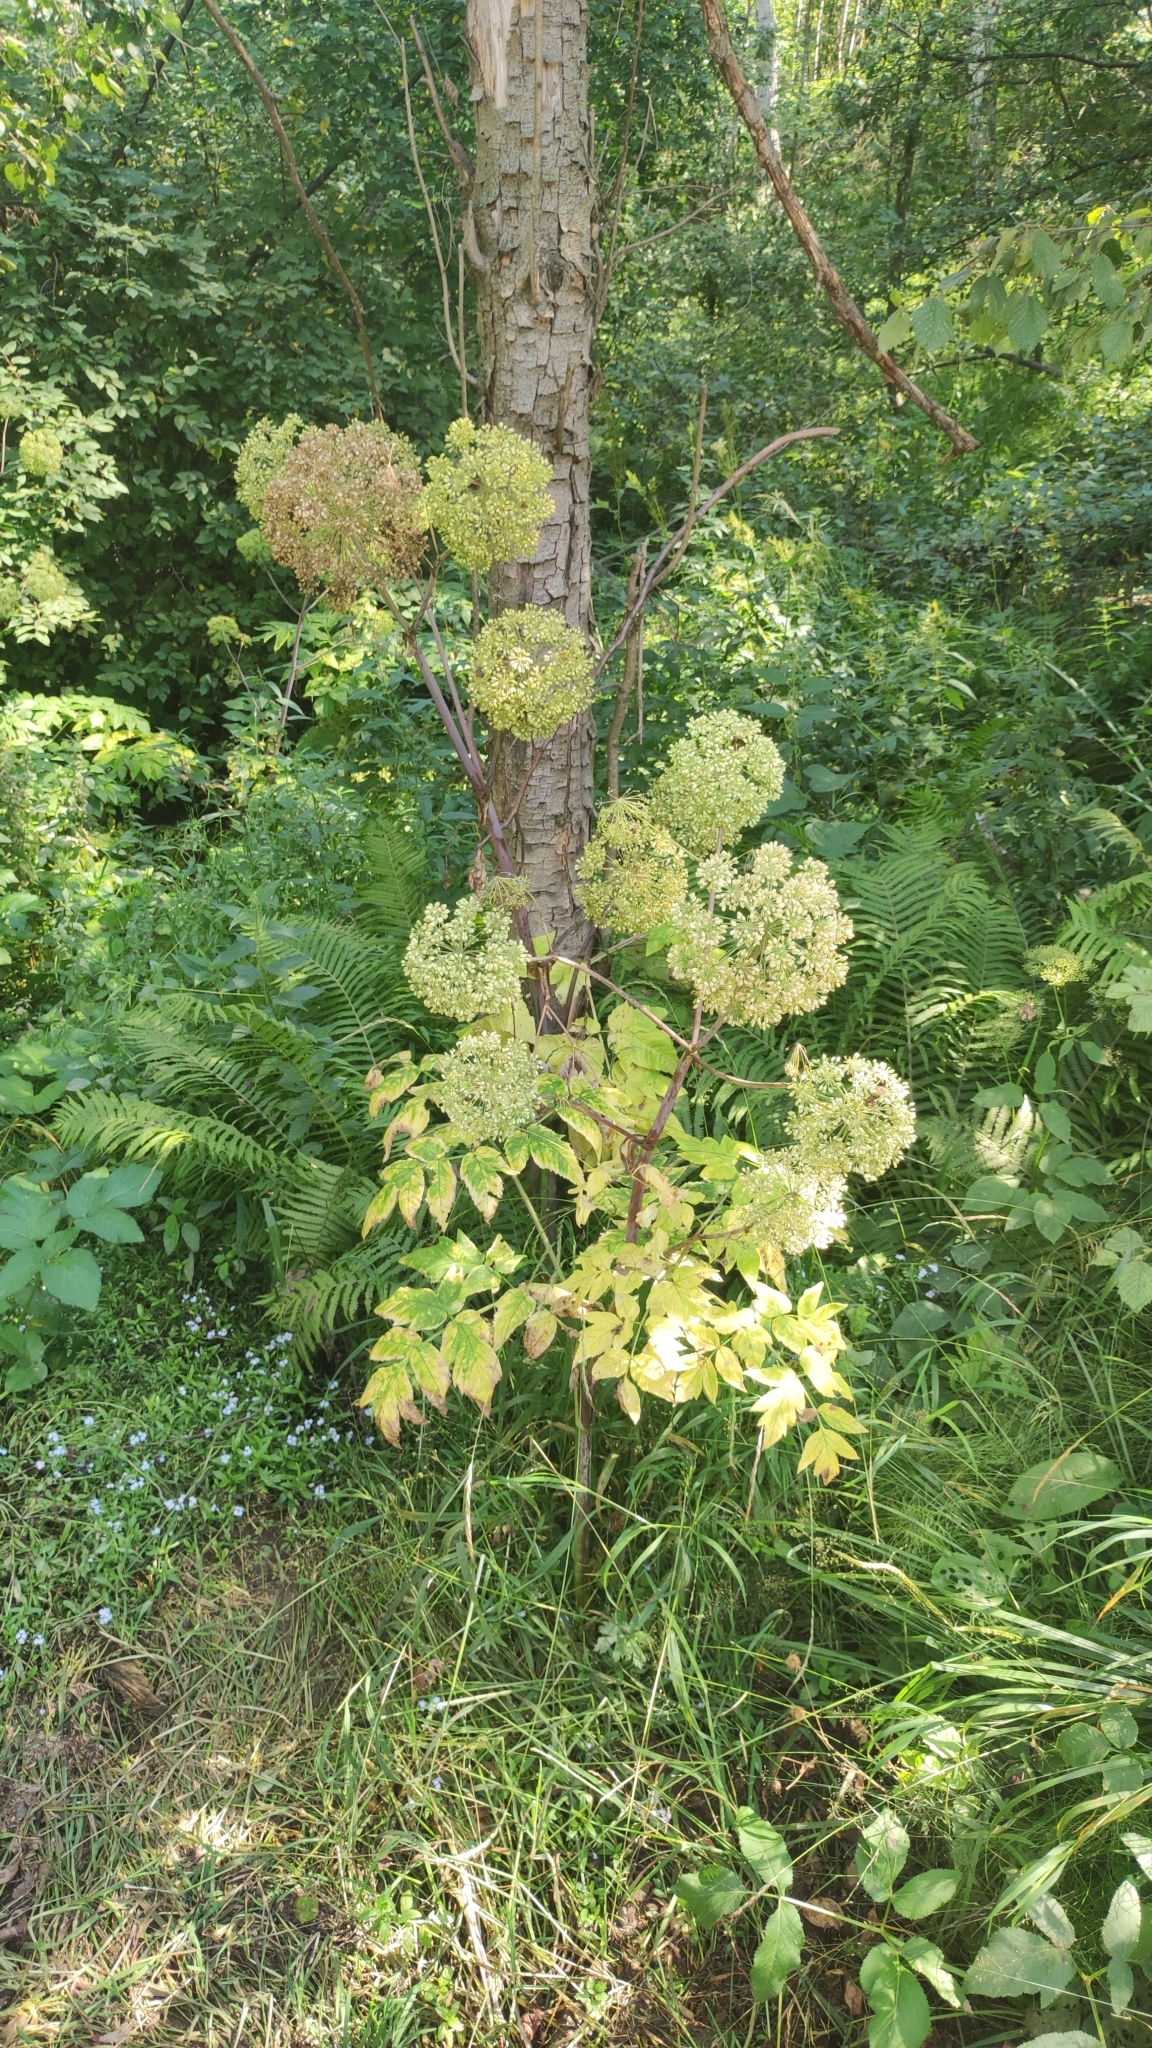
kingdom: Plantae
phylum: Tracheophyta
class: Magnoliopsida
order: Apiales
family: Apiaceae
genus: Angelica
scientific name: Angelica archangelica
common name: Garden angelica
